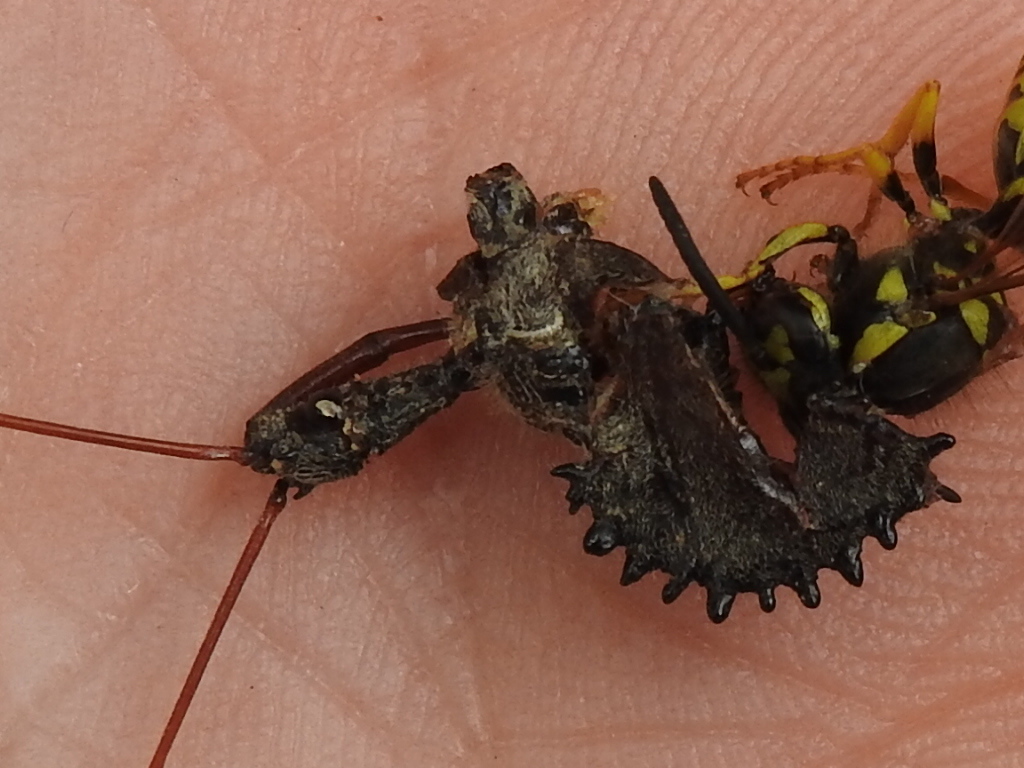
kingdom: Animalia
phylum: Arthropoda
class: Insecta
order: Hemiptera
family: Reduviidae
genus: Arilus
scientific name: Arilus cristatus
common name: North american wheel bug
